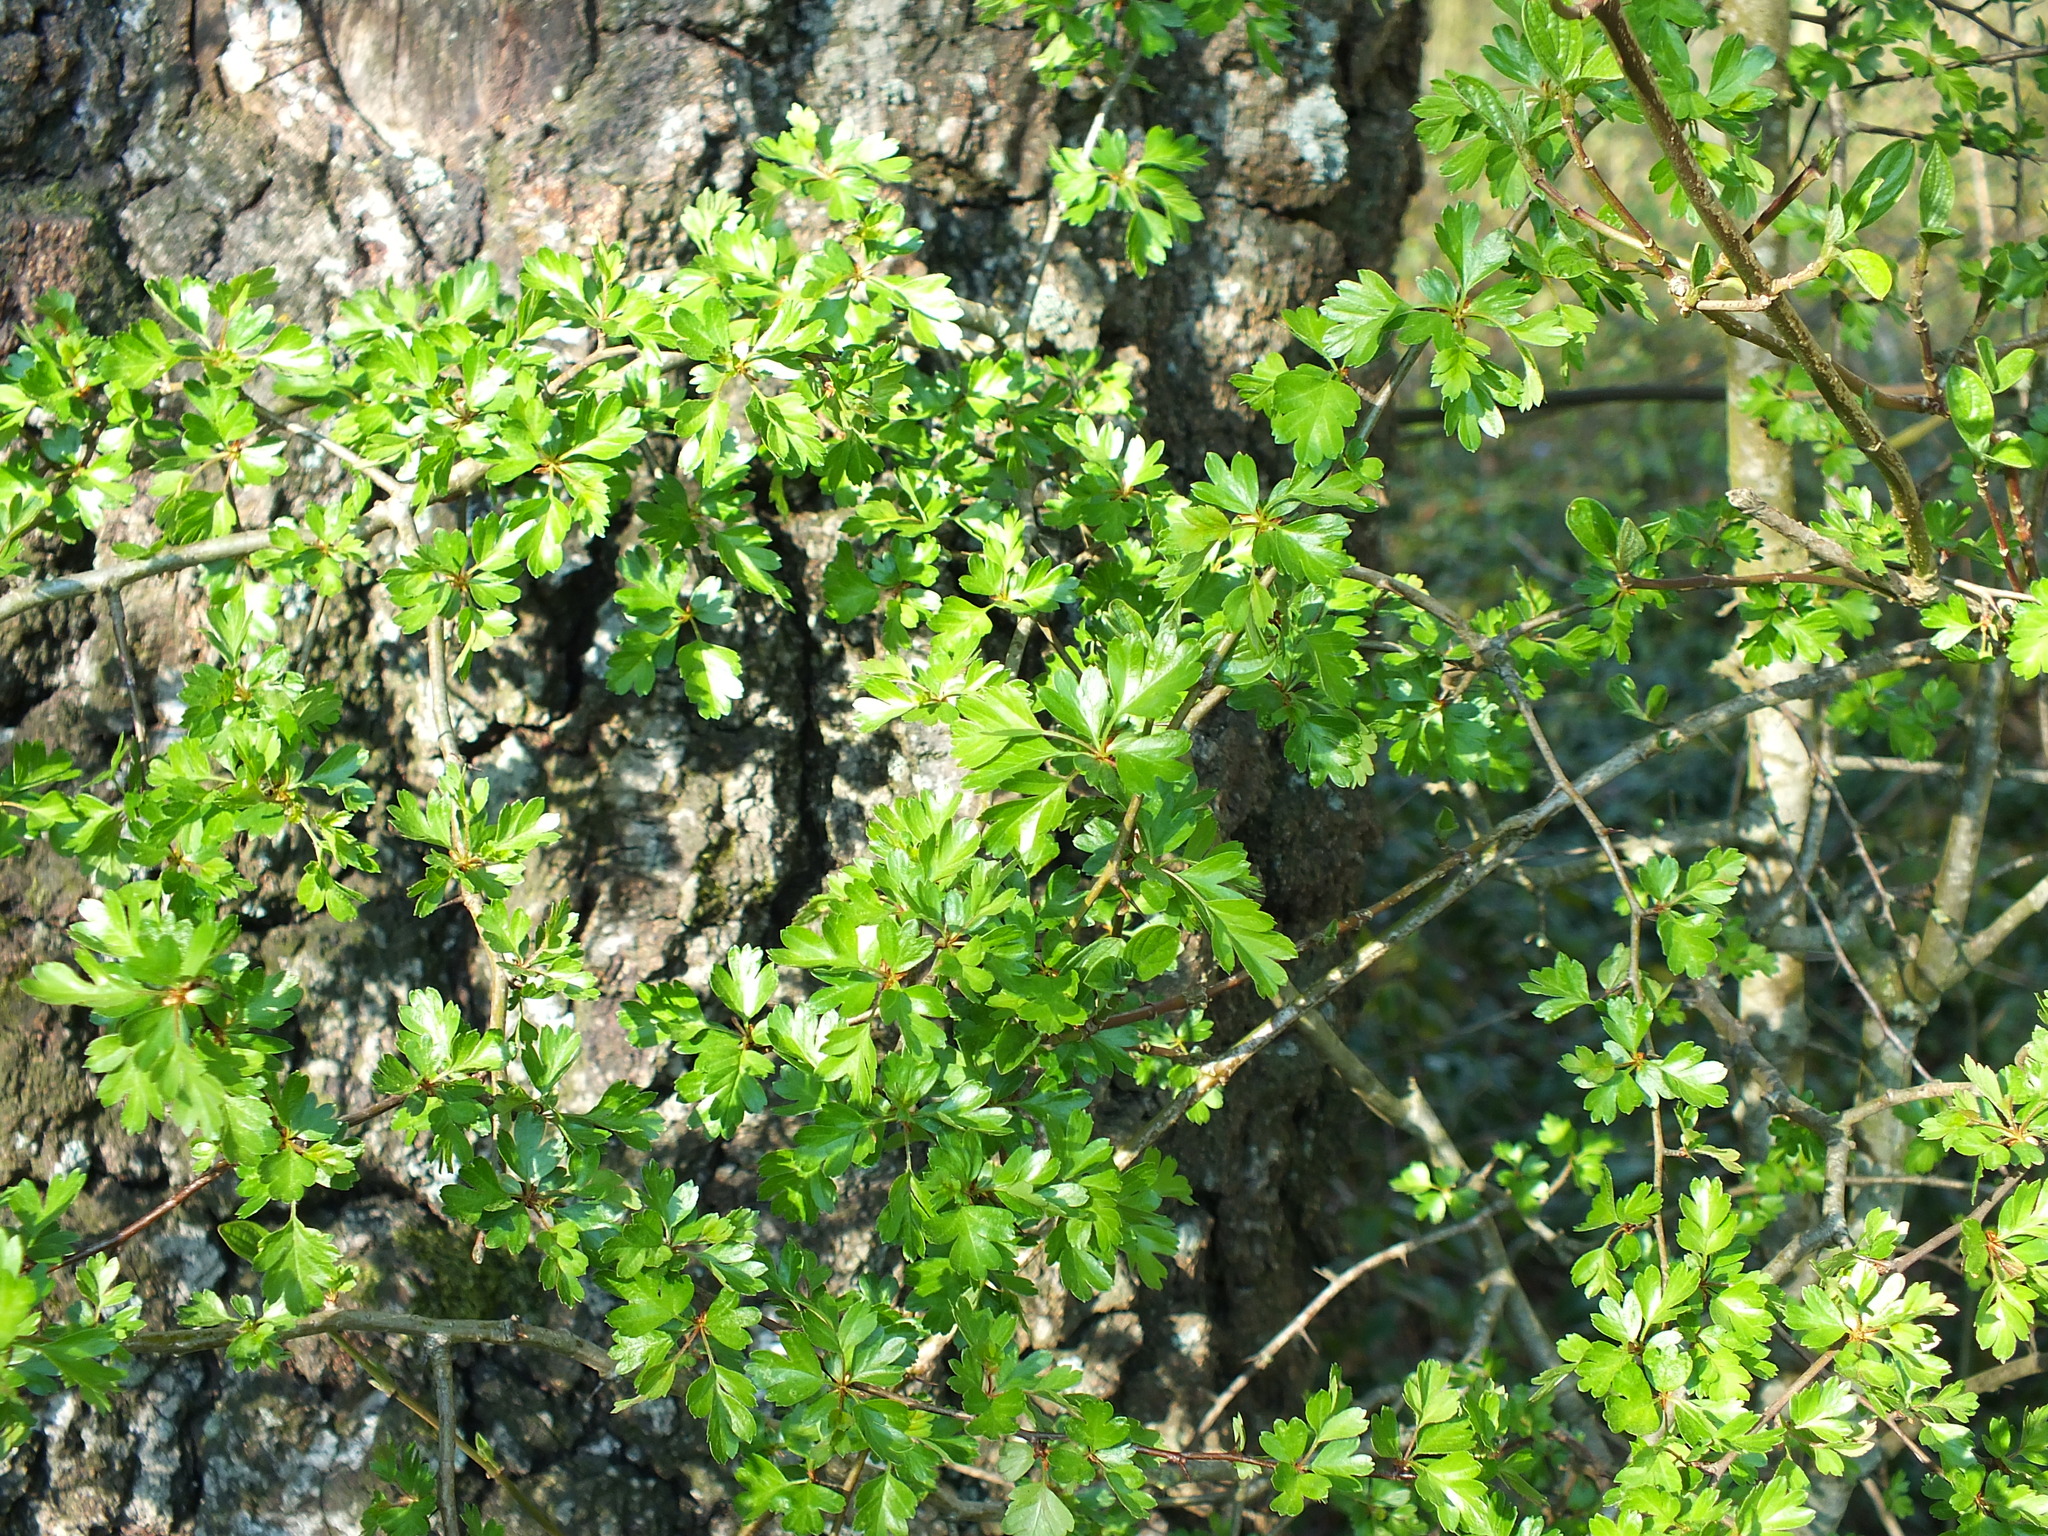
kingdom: Plantae
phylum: Tracheophyta
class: Magnoliopsida
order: Rosales
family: Rosaceae
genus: Crataegus
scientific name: Crataegus monogyna
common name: Hawthorn
